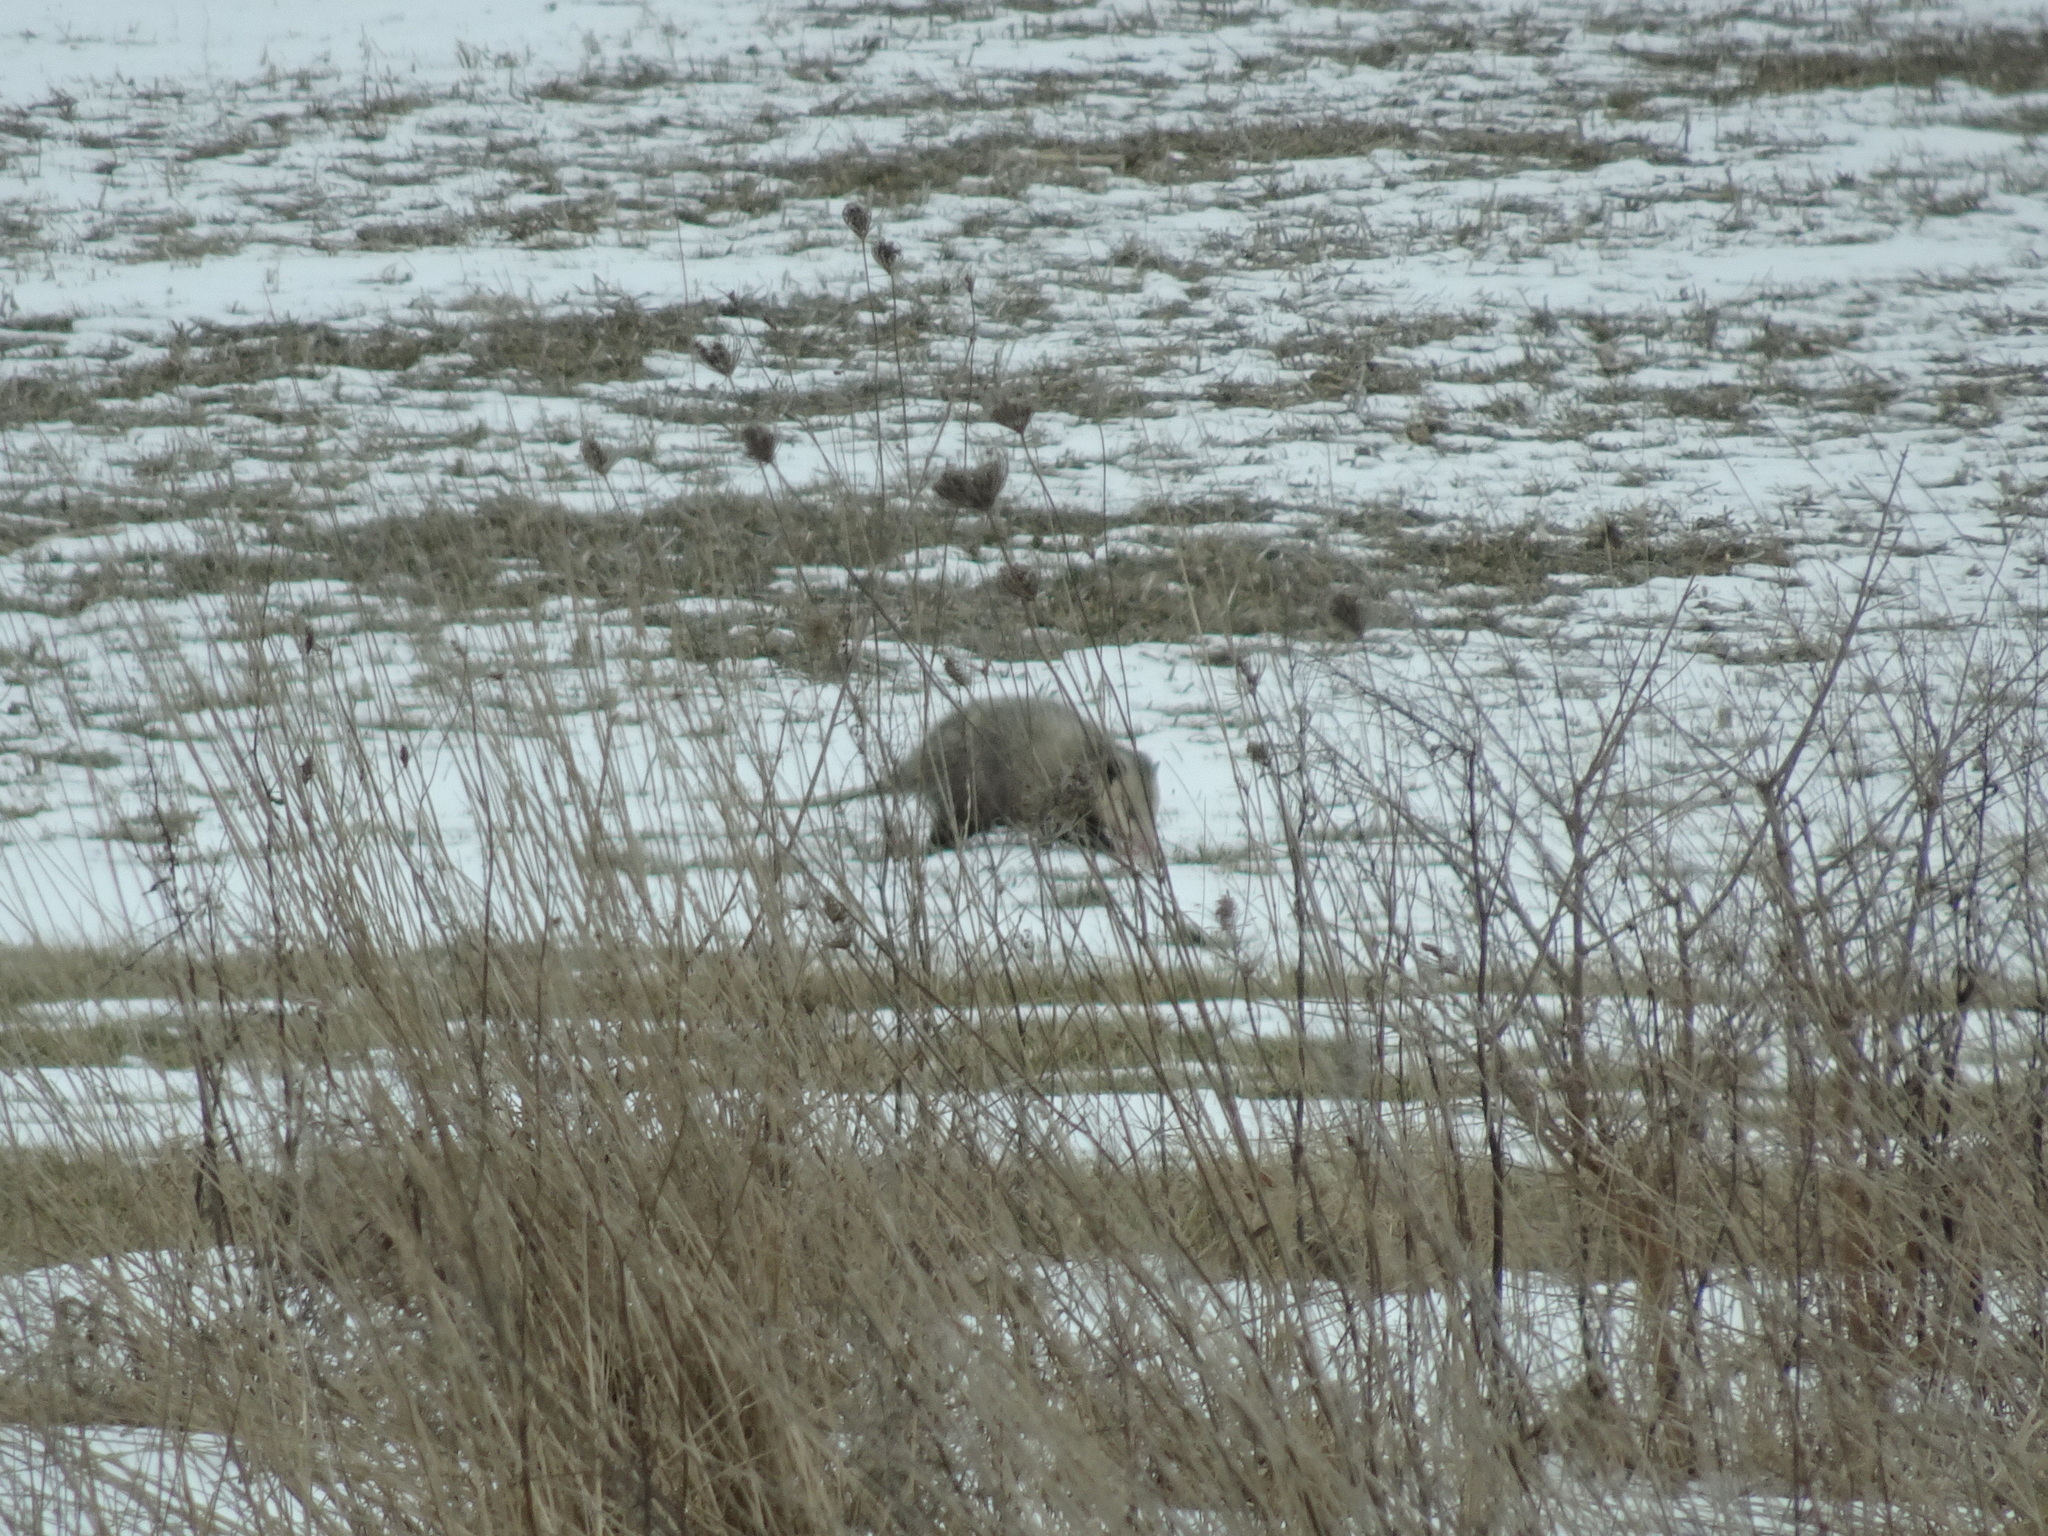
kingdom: Animalia
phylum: Chordata
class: Mammalia
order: Didelphimorphia
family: Didelphidae
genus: Didelphis
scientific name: Didelphis virginiana
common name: Virginia opossum
